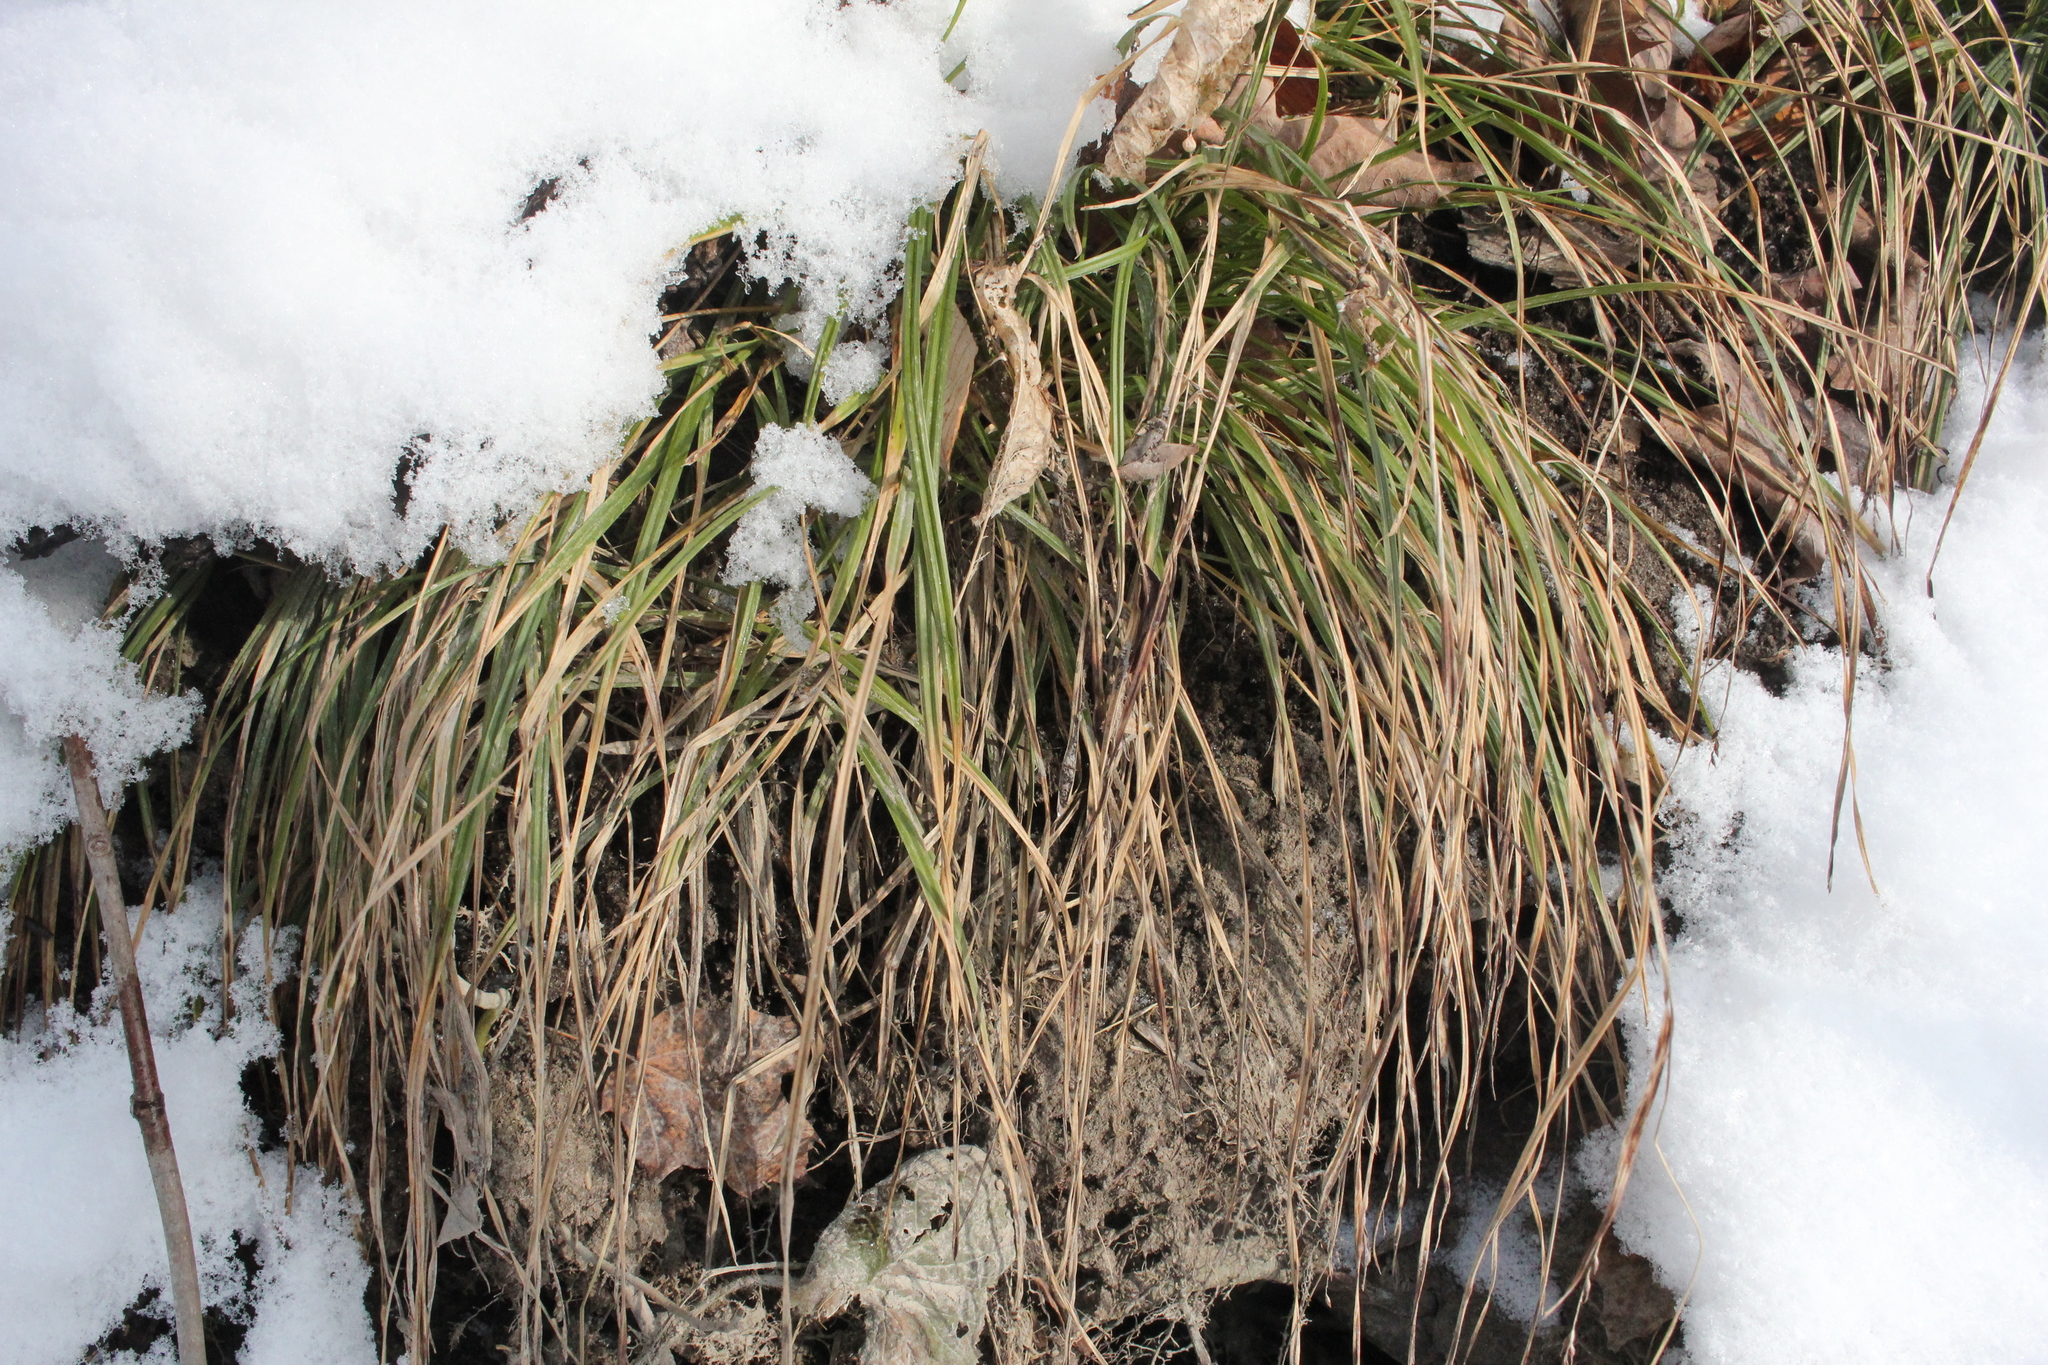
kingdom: Plantae
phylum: Tracheophyta
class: Liliopsida
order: Poales
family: Cyperaceae
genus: Carex
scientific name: Carex sylvatica
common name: Wood-sedge
